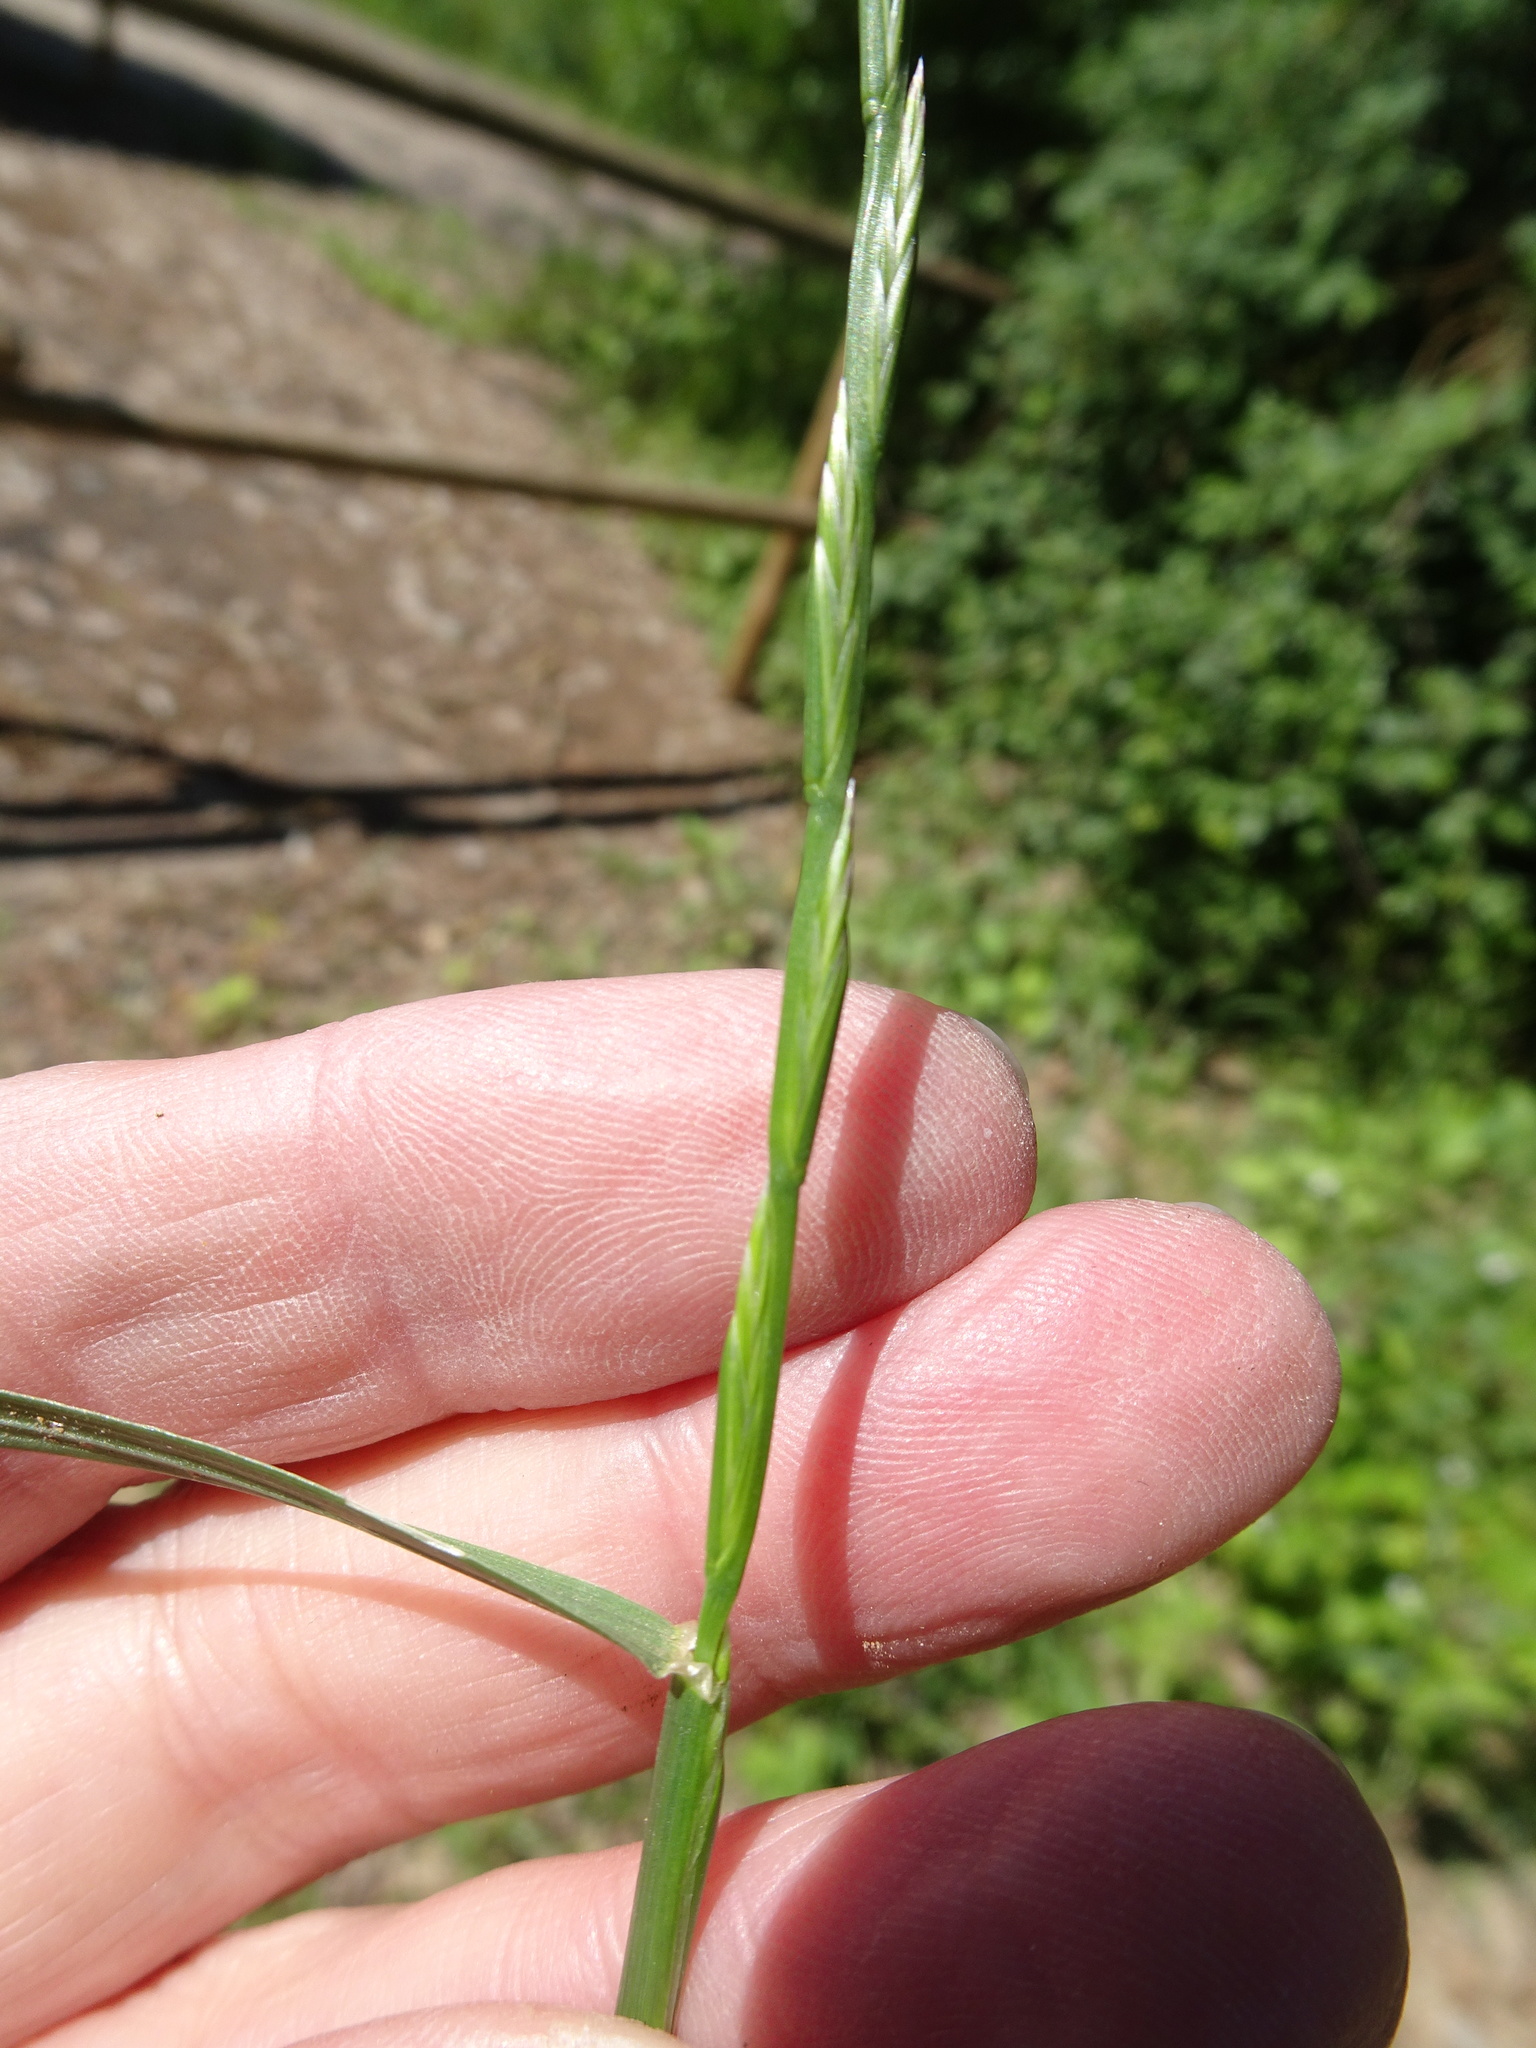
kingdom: Plantae
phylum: Tracheophyta
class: Liliopsida
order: Poales
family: Poaceae
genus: Lolium
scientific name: Lolium perenne
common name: Perennial ryegrass
